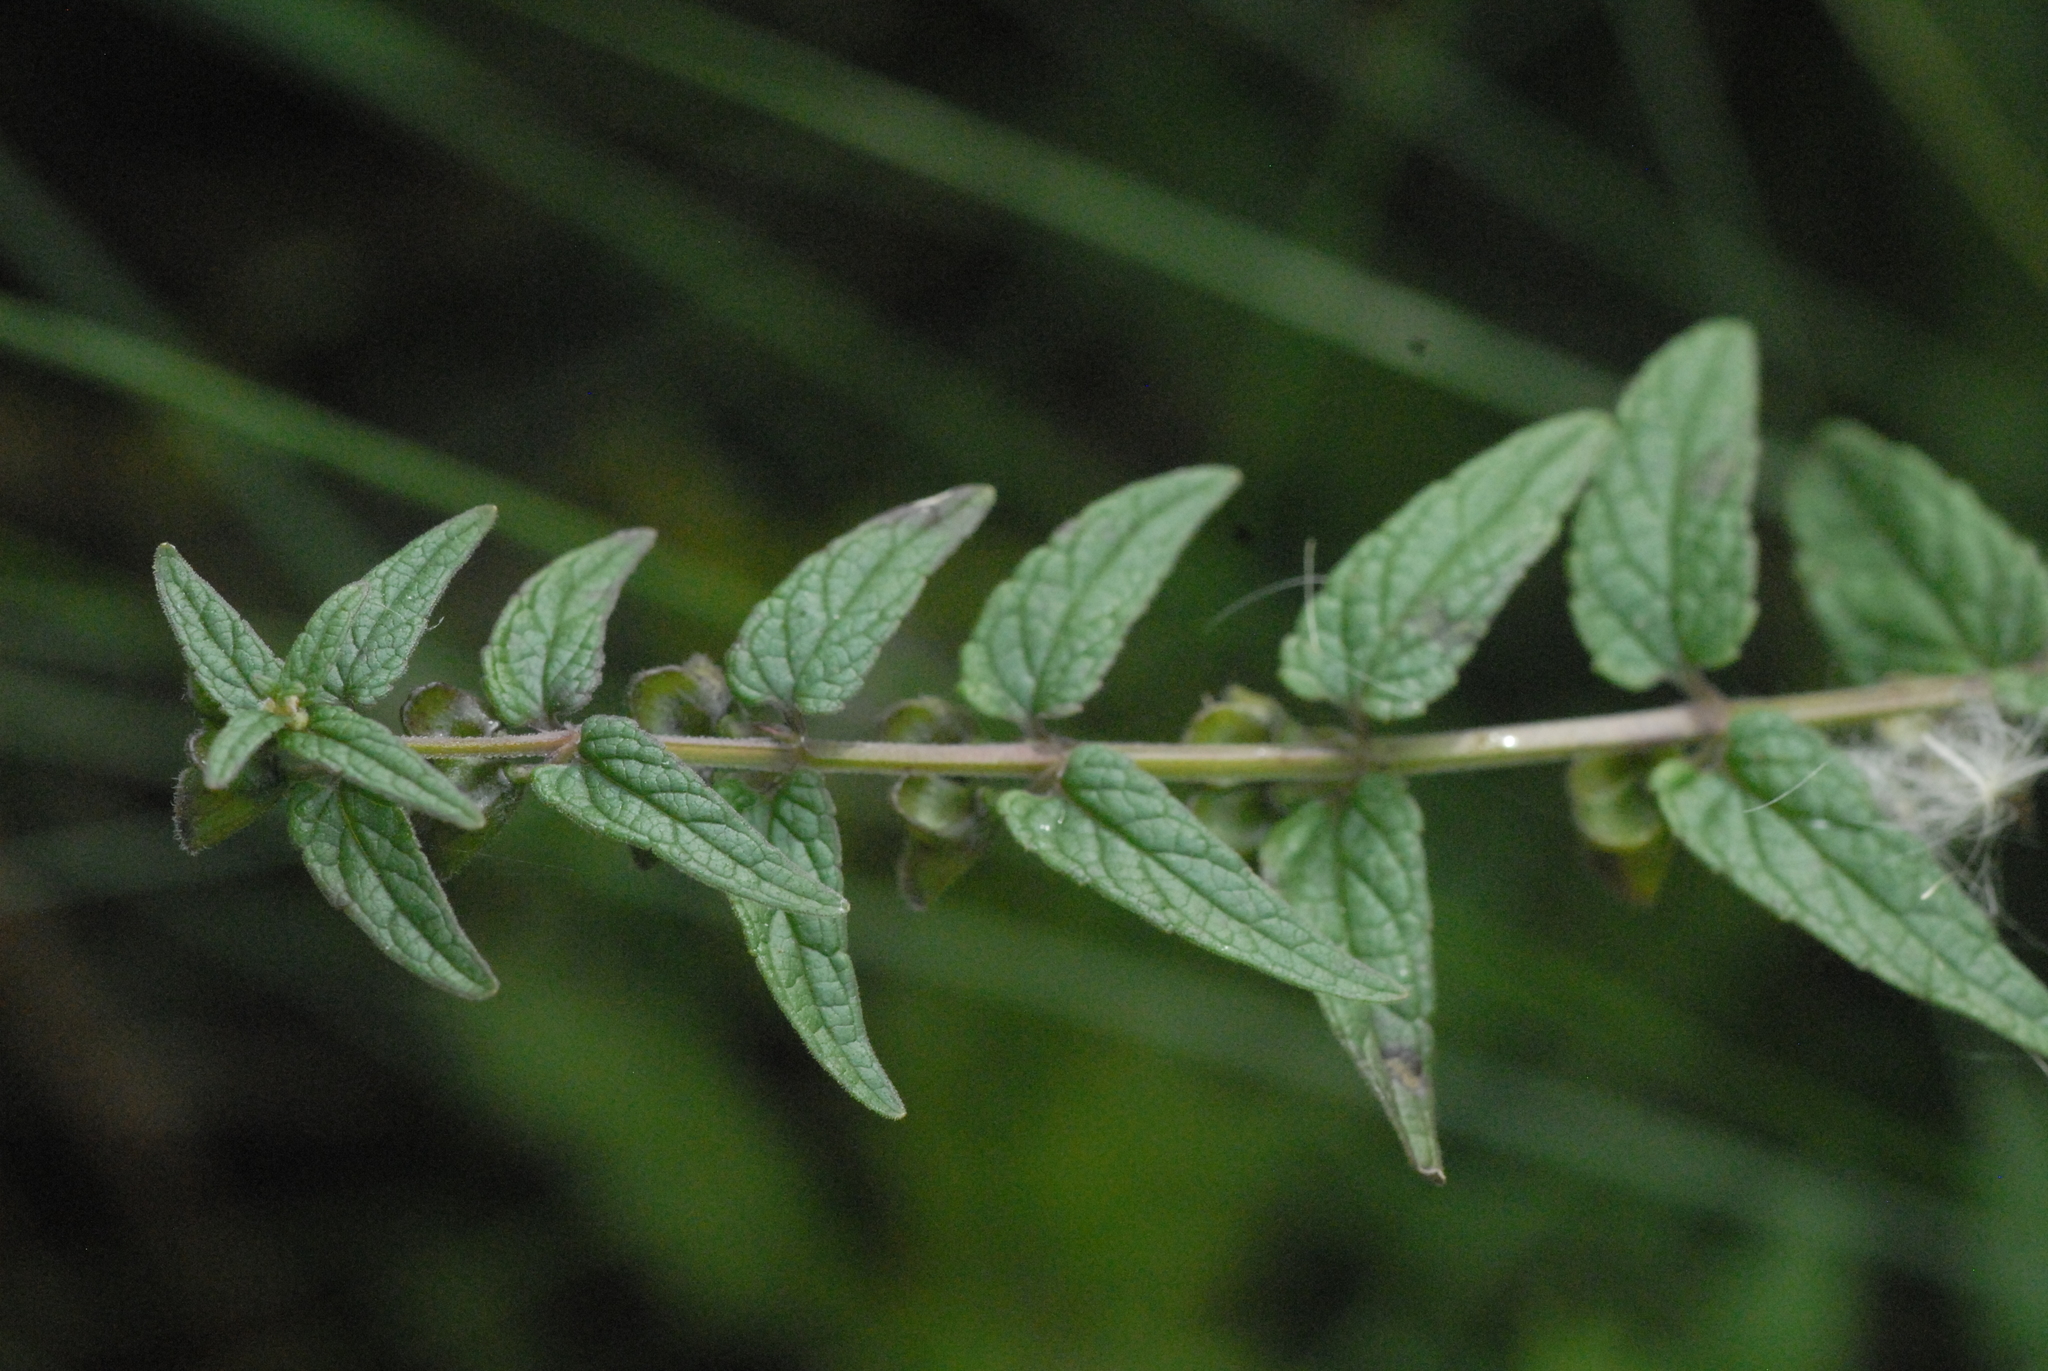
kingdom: Plantae
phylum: Tracheophyta
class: Magnoliopsida
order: Lamiales
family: Lamiaceae
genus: Scutellaria
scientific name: Scutellaria galericulata
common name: Skullcap
